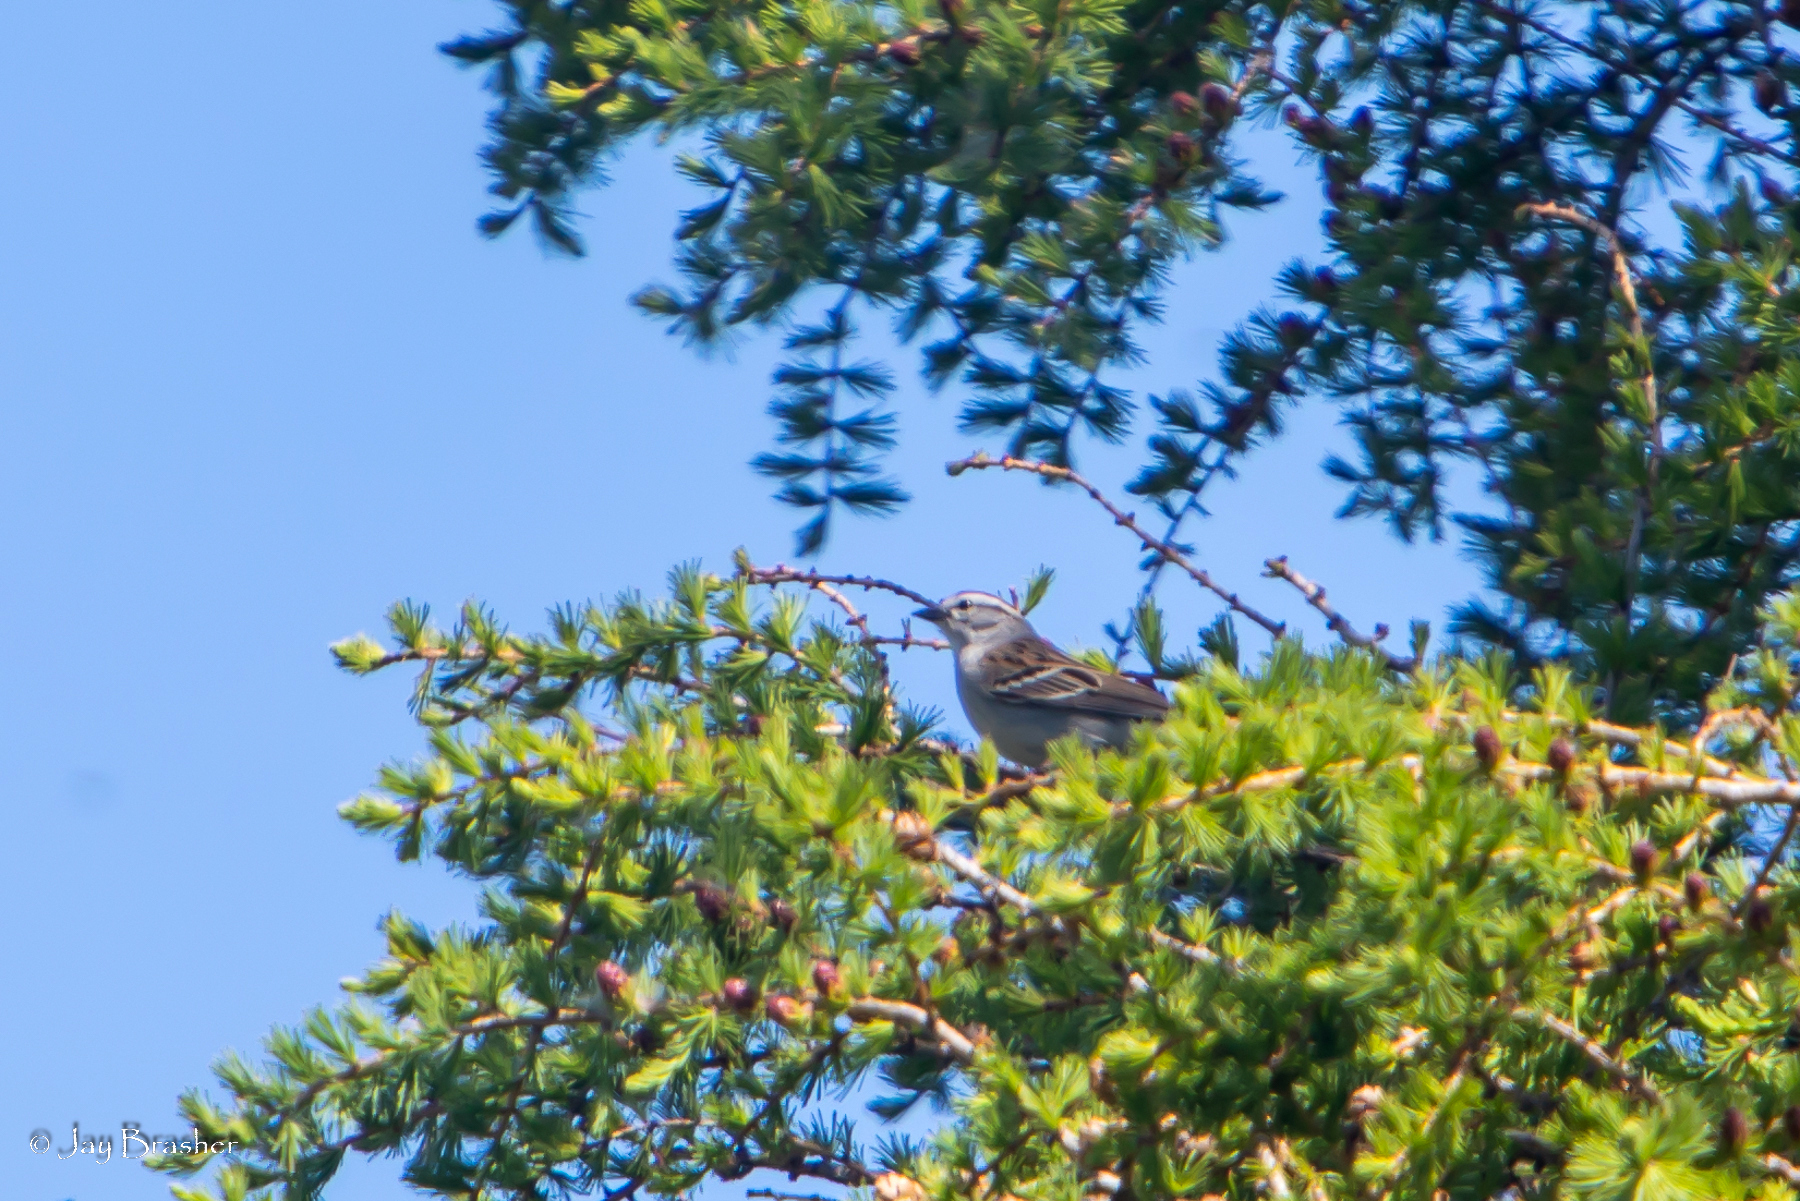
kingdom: Animalia
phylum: Chordata
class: Aves
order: Passeriformes
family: Passerellidae
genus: Spizella
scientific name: Spizella passerina
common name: Chipping sparrow
